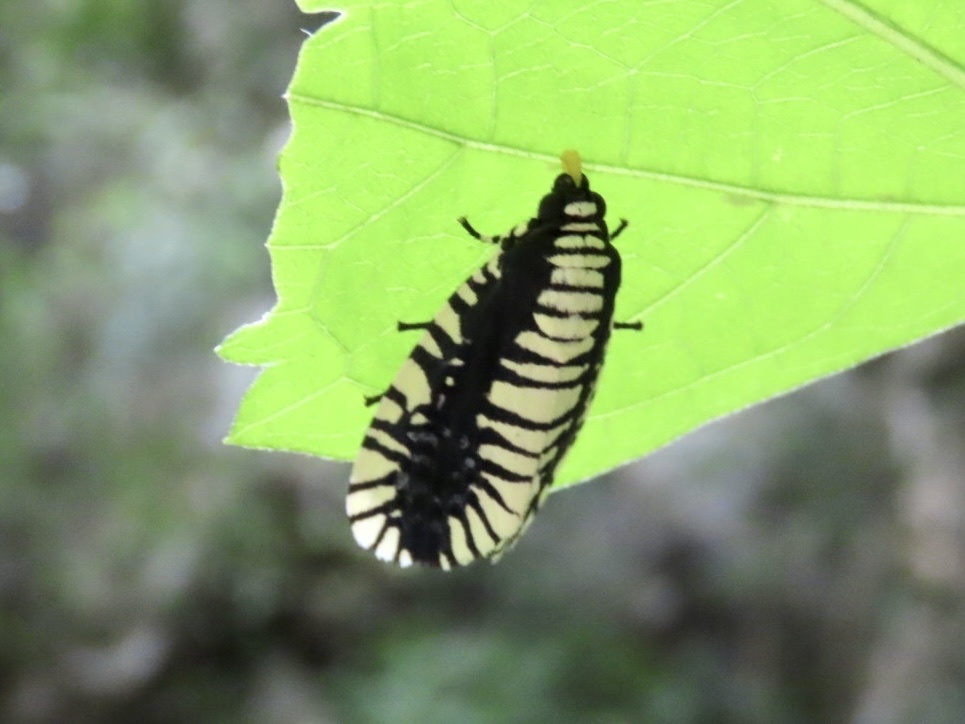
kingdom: Animalia
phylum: Arthropoda
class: Insecta
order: Lepidoptera
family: Noctuidae
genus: Apsarasa
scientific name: Apsarasa radians
